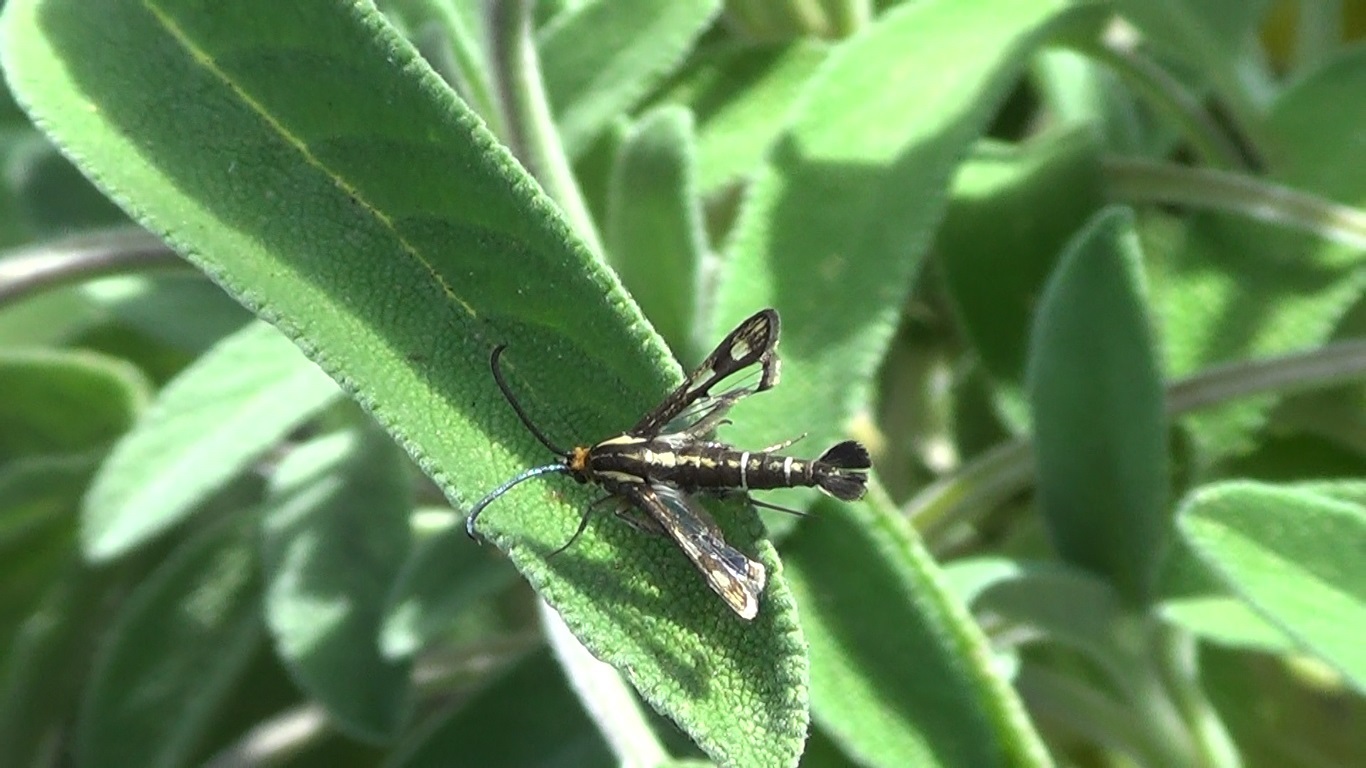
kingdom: Animalia
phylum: Arthropoda
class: Insecta
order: Lepidoptera
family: Sesiidae
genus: Chamaesphecia
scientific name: Chamaesphecia aerifrons
